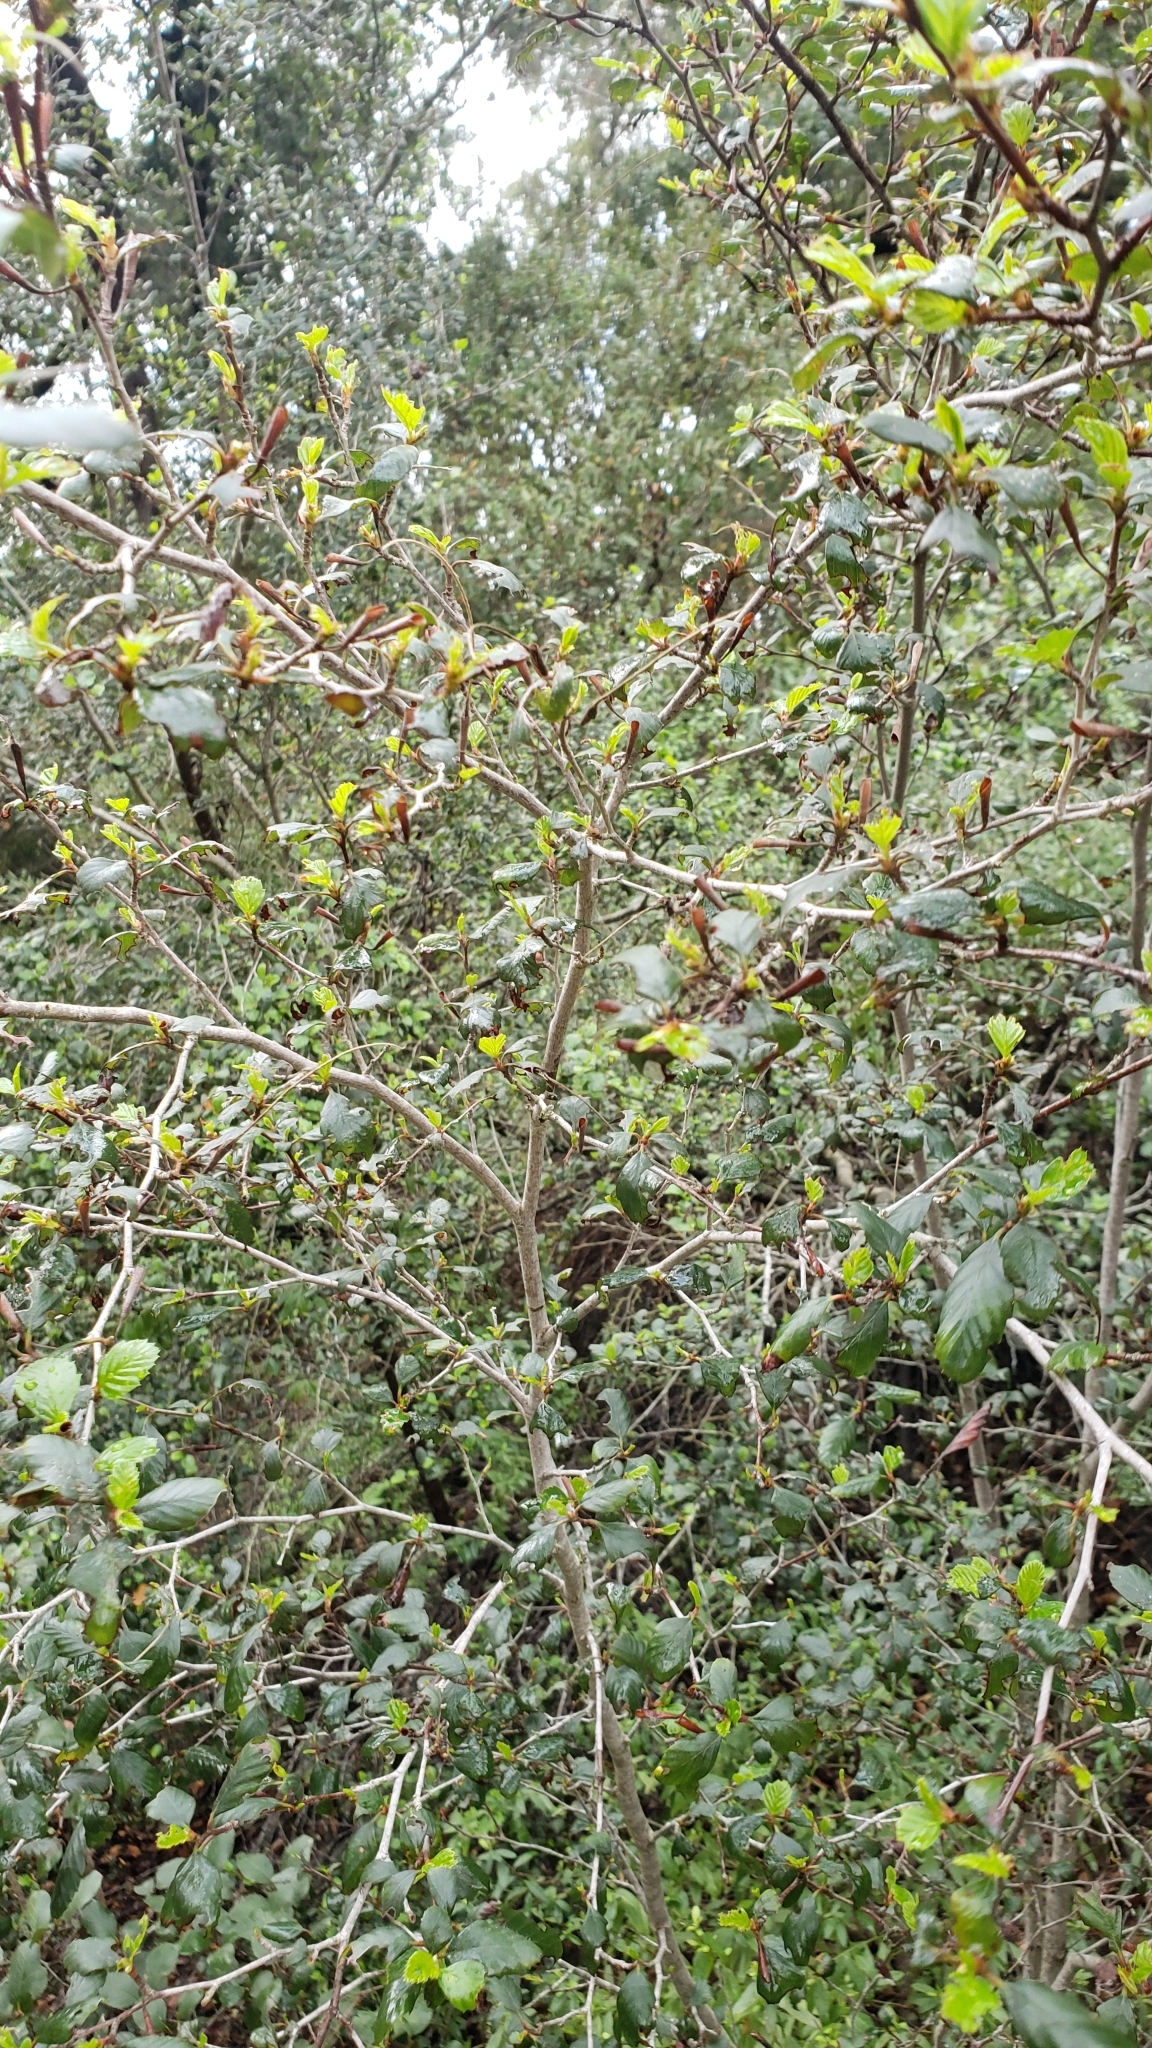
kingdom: Plantae
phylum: Tracheophyta
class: Magnoliopsida
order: Rosales
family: Rosaceae
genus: Cercocarpus
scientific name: Cercocarpus montanus
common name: Alder-leaf cercocarpus
